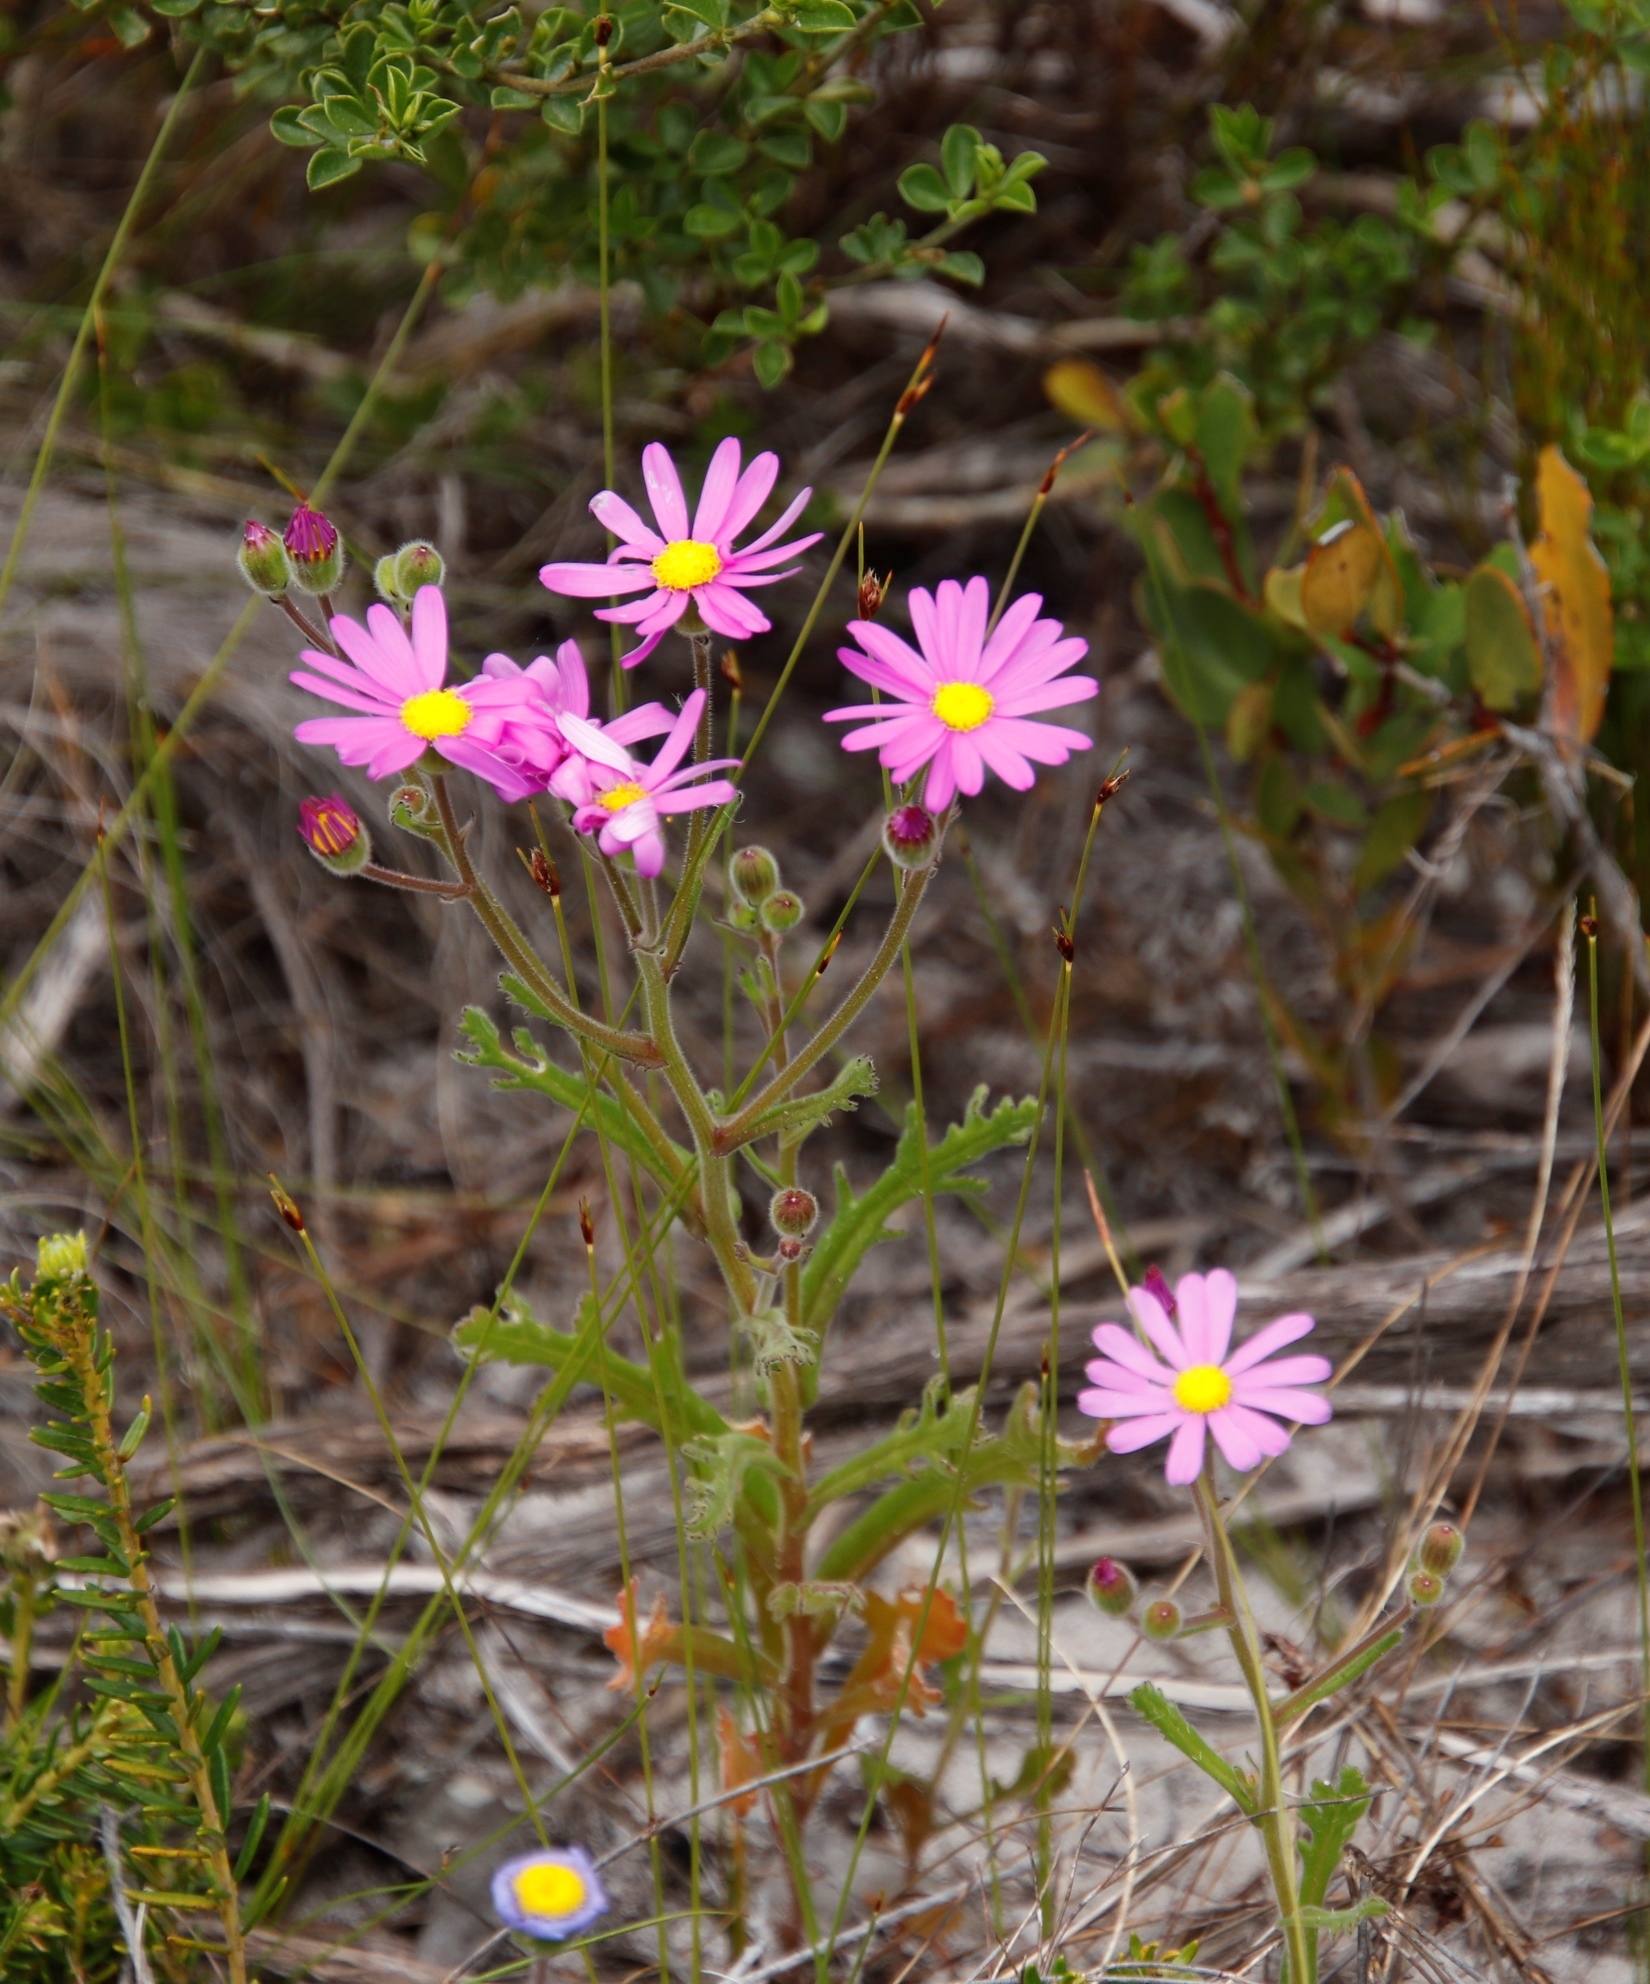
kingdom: Plantae
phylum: Tracheophyta
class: Magnoliopsida
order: Asterales
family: Asteraceae
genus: Senecio
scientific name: Senecio arenarius
